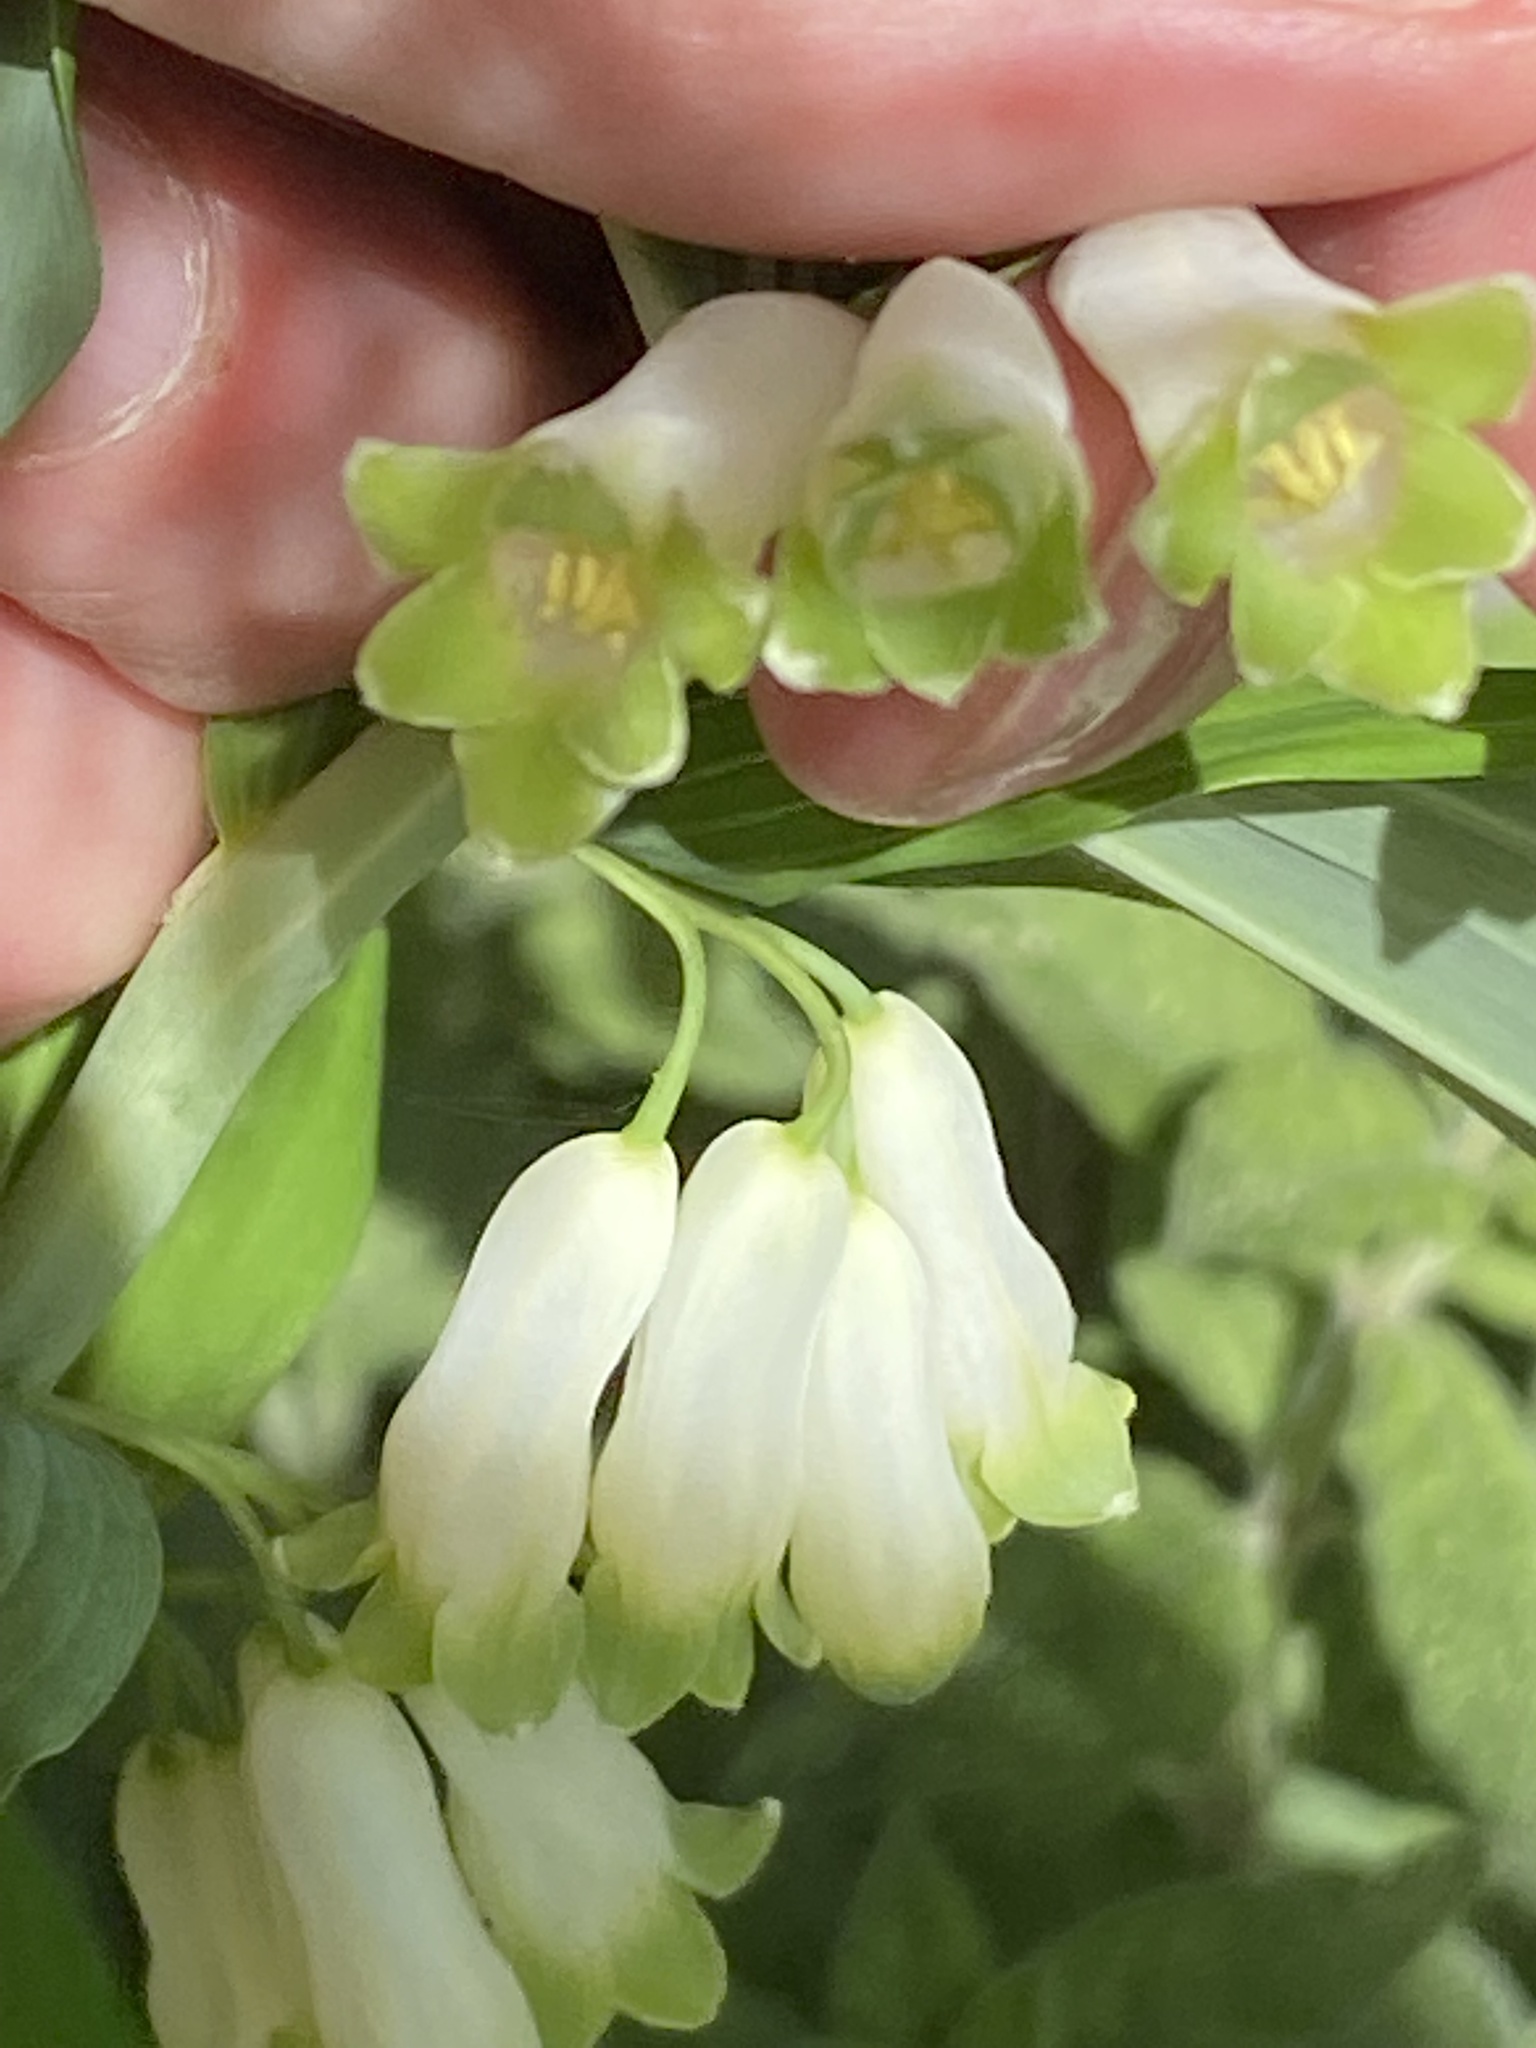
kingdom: Plantae
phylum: Tracheophyta
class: Liliopsida
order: Asparagales
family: Asparagaceae
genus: Polygonatum
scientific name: Polygonatum multiflorum
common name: Solomon's-seal
